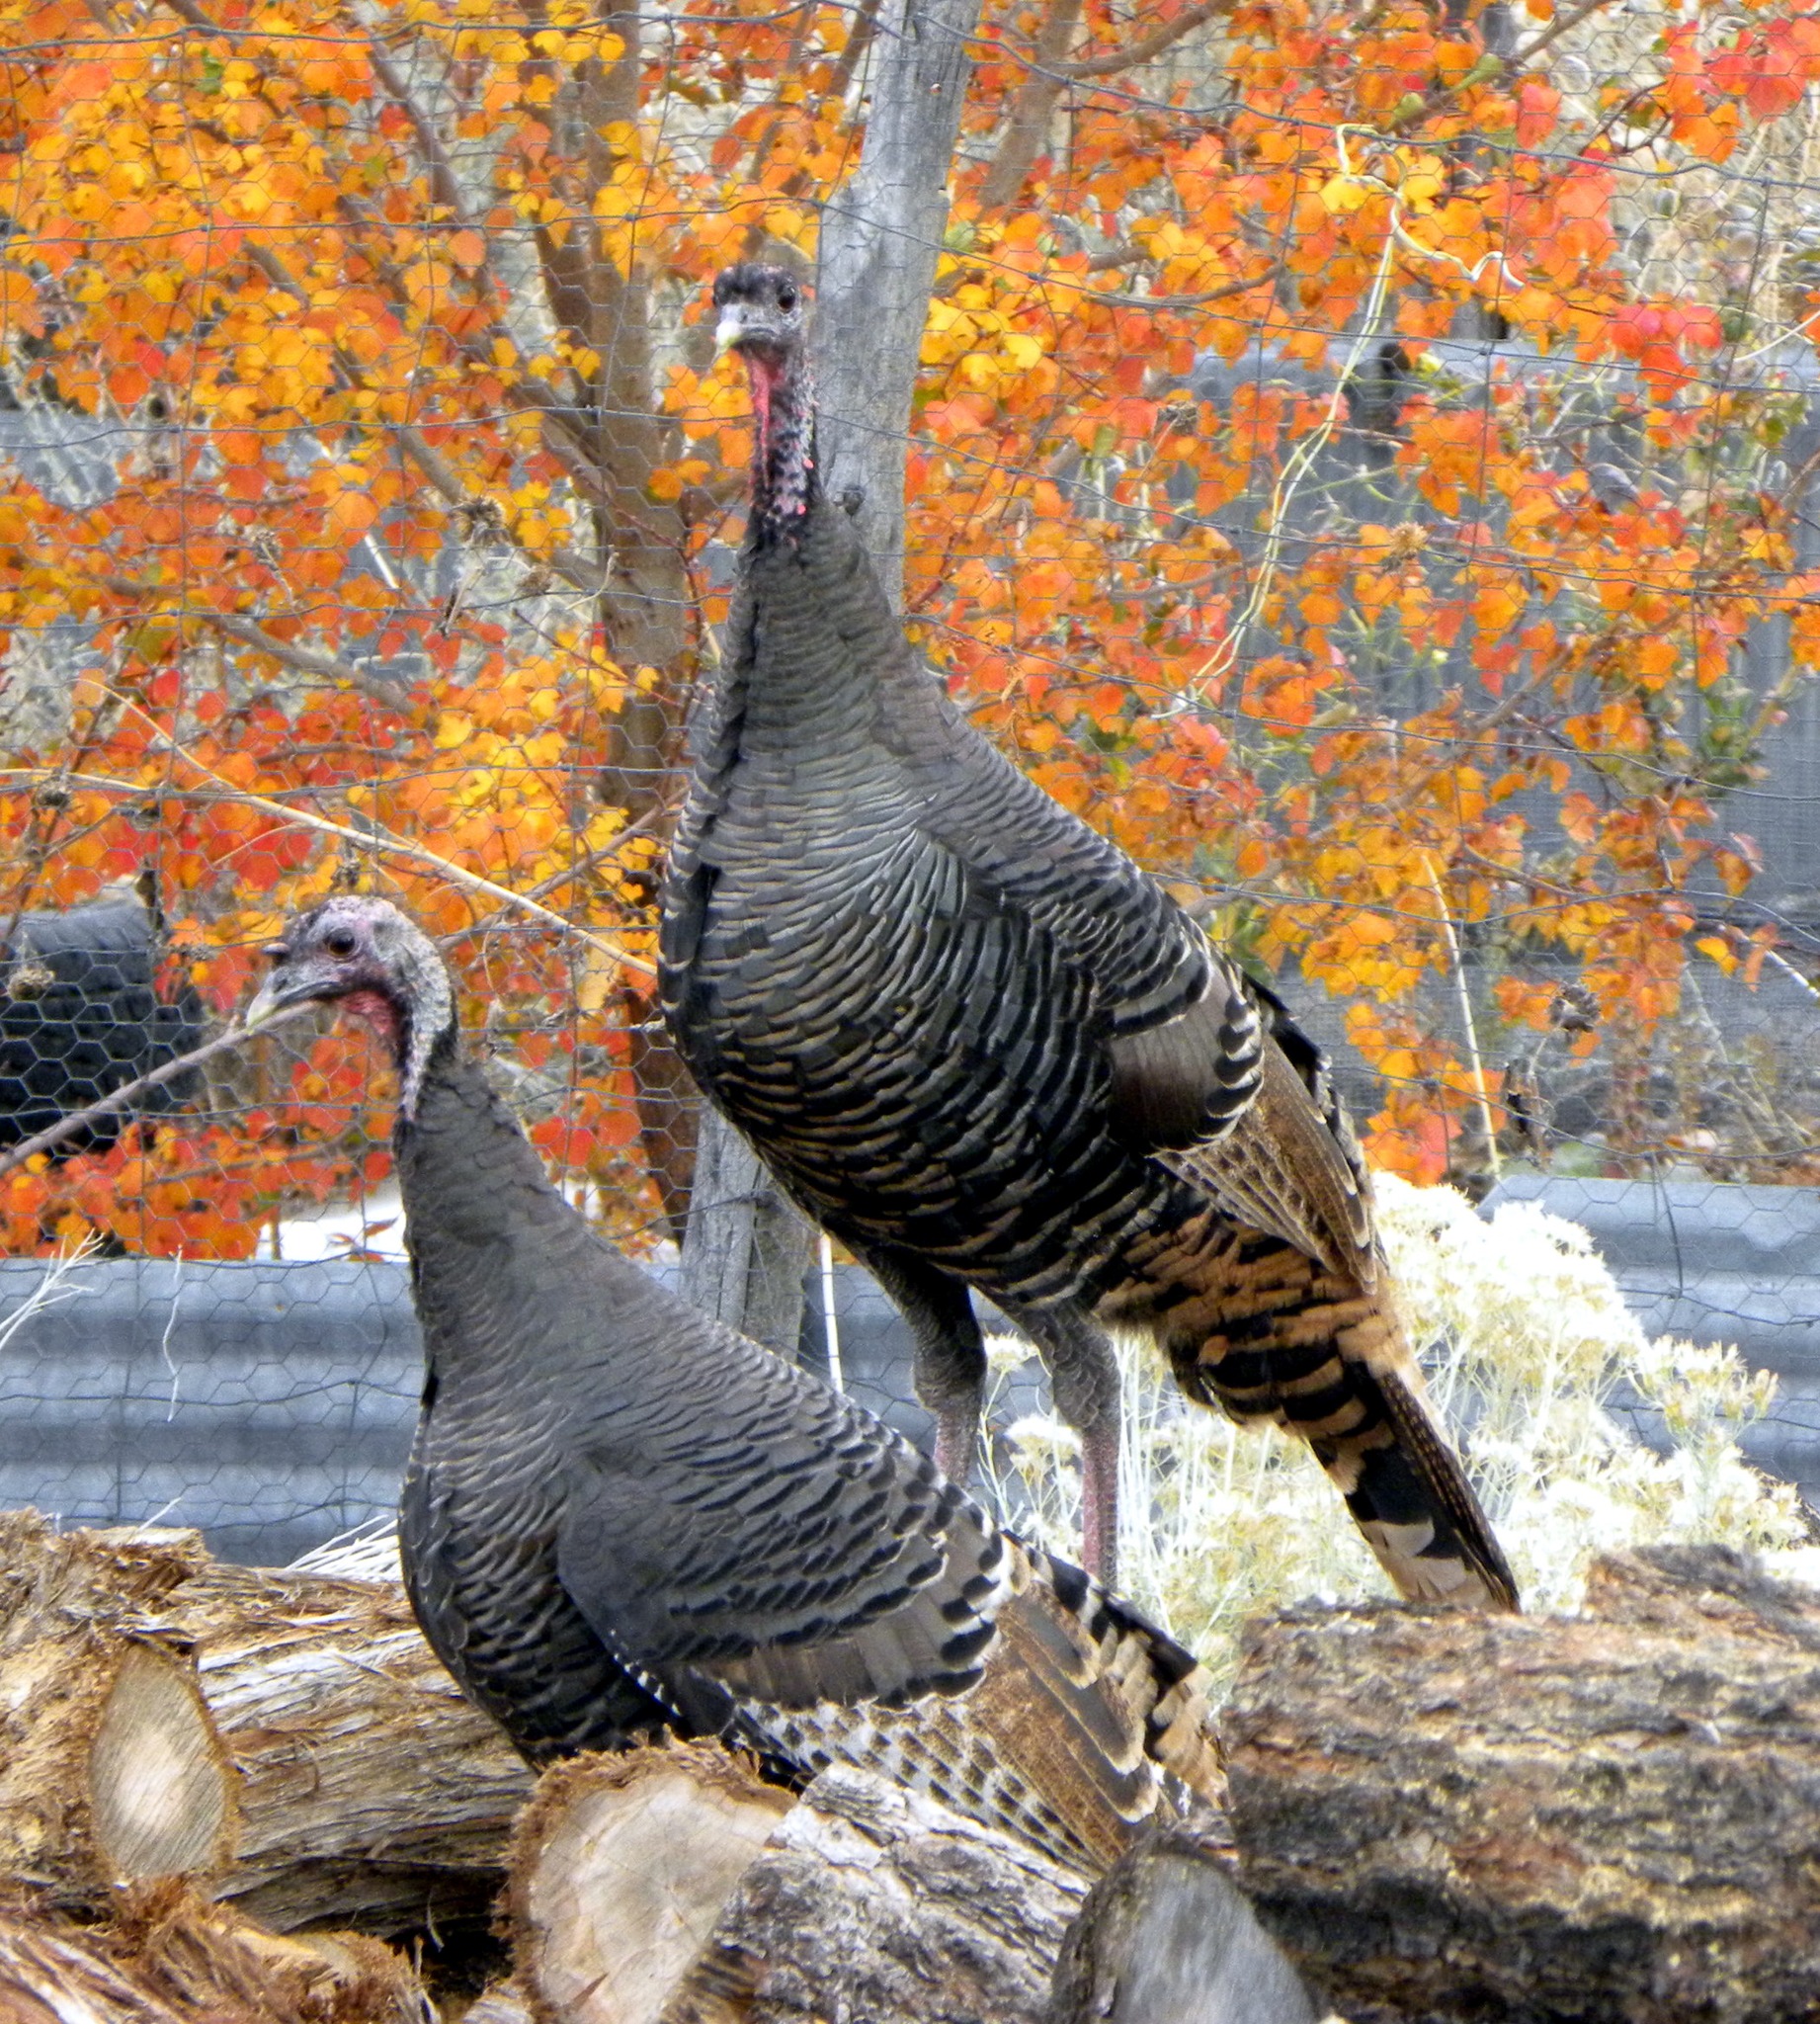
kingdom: Animalia
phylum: Chordata
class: Aves
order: Galliformes
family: Phasianidae
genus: Meleagris
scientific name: Meleagris gallopavo
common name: Wild turkey
